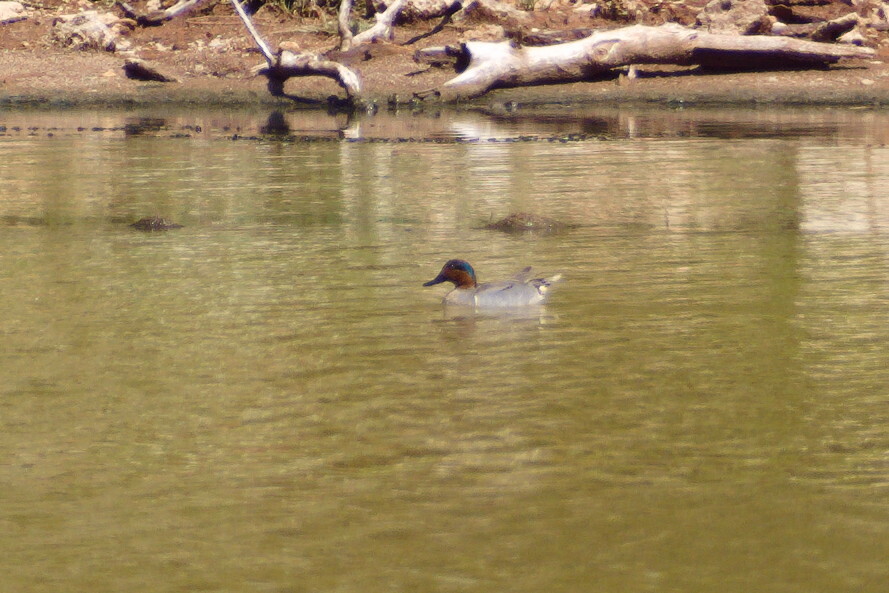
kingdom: Animalia
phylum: Chordata
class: Aves
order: Anseriformes
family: Anatidae
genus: Anas
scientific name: Anas crecca
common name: Eurasian teal
